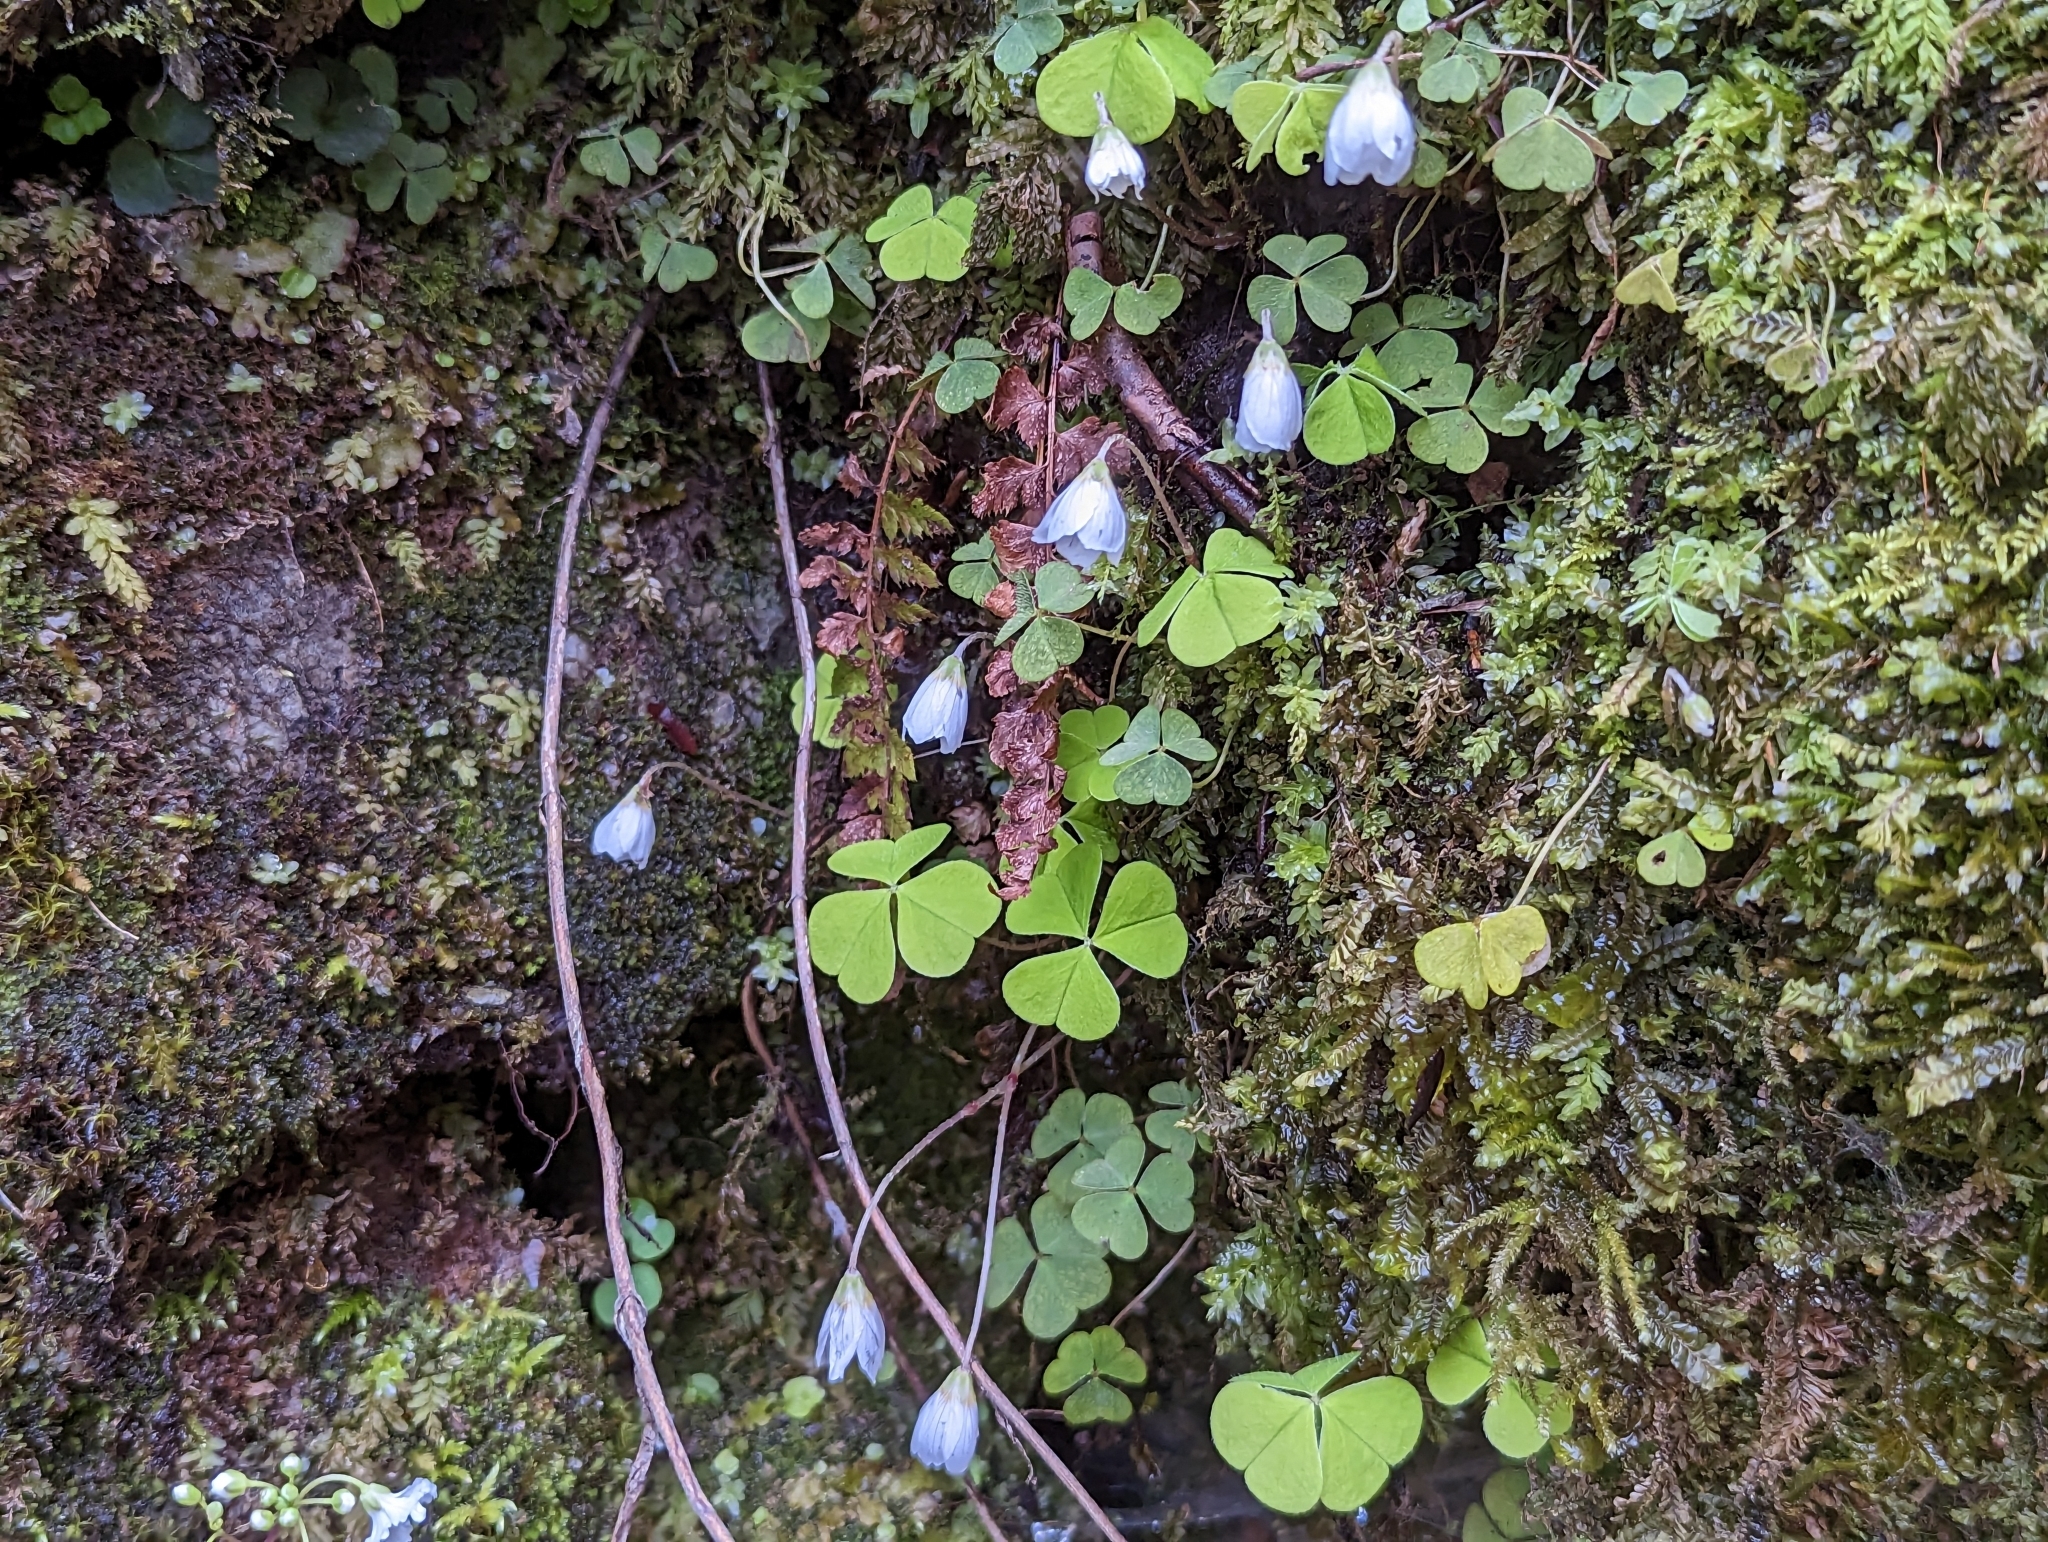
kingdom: Plantae
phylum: Tracheophyta
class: Magnoliopsida
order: Oxalidales
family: Oxalidaceae
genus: Oxalis
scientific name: Oxalis acetosella
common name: Wood-sorrel
